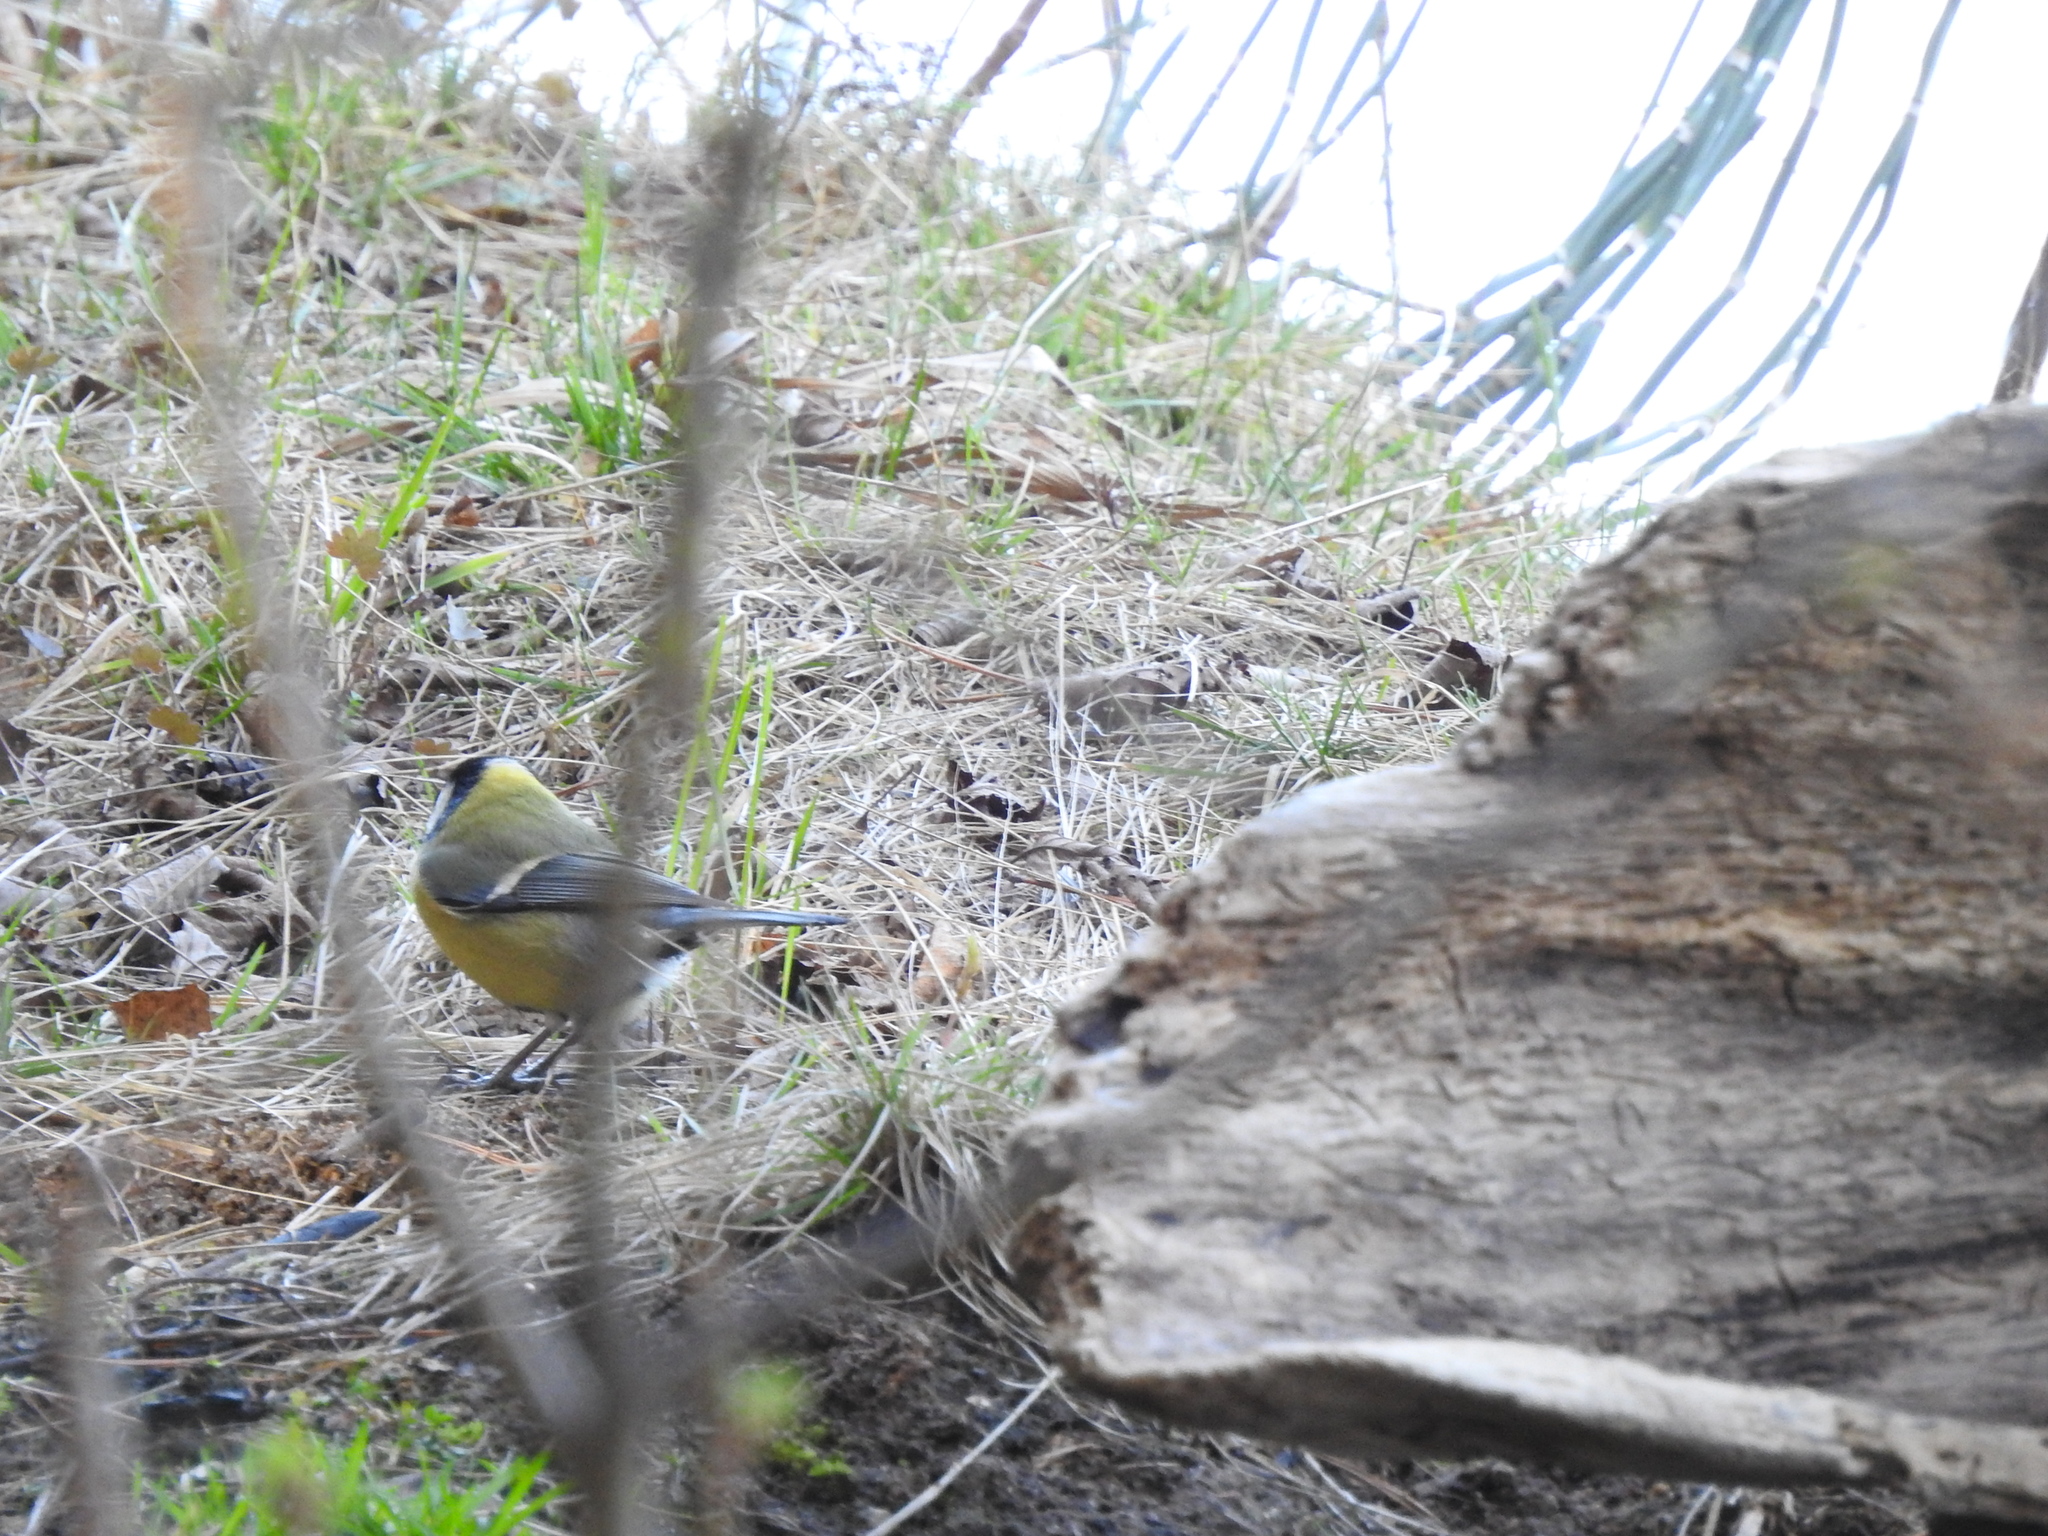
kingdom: Animalia
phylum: Chordata
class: Aves
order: Passeriformes
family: Paridae
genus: Parus
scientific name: Parus major
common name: Great tit
